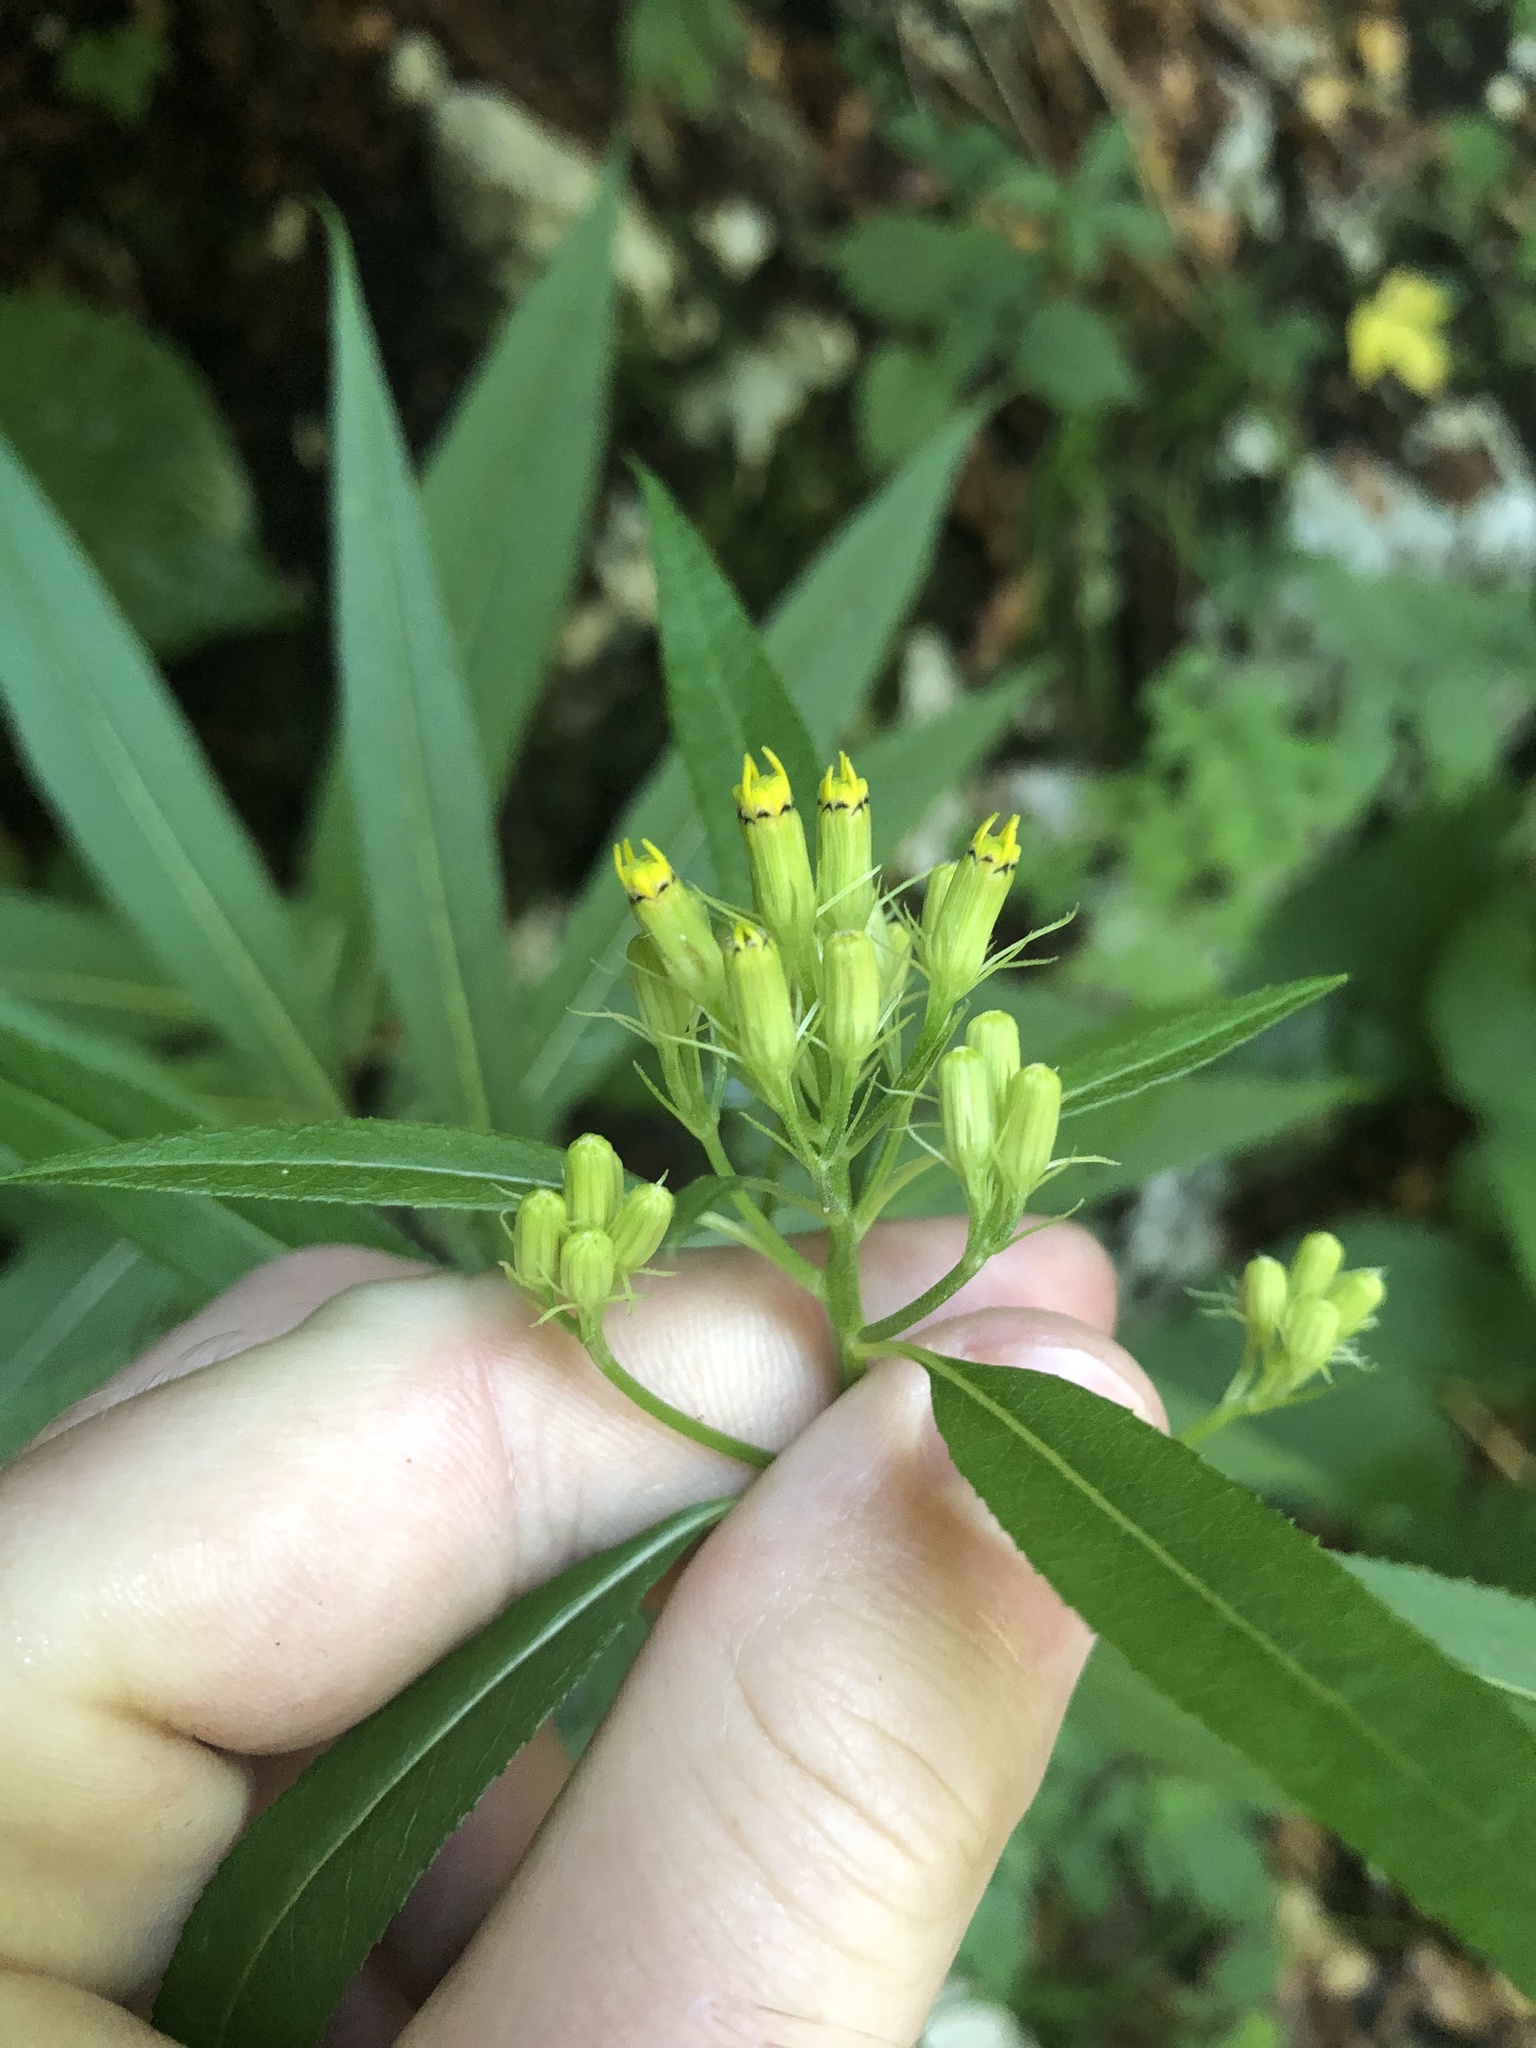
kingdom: Plantae
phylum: Tracheophyta
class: Magnoliopsida
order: Asterales
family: Asteraceae
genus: Senecio
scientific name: Senecio ovatus
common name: Wood ragwort
